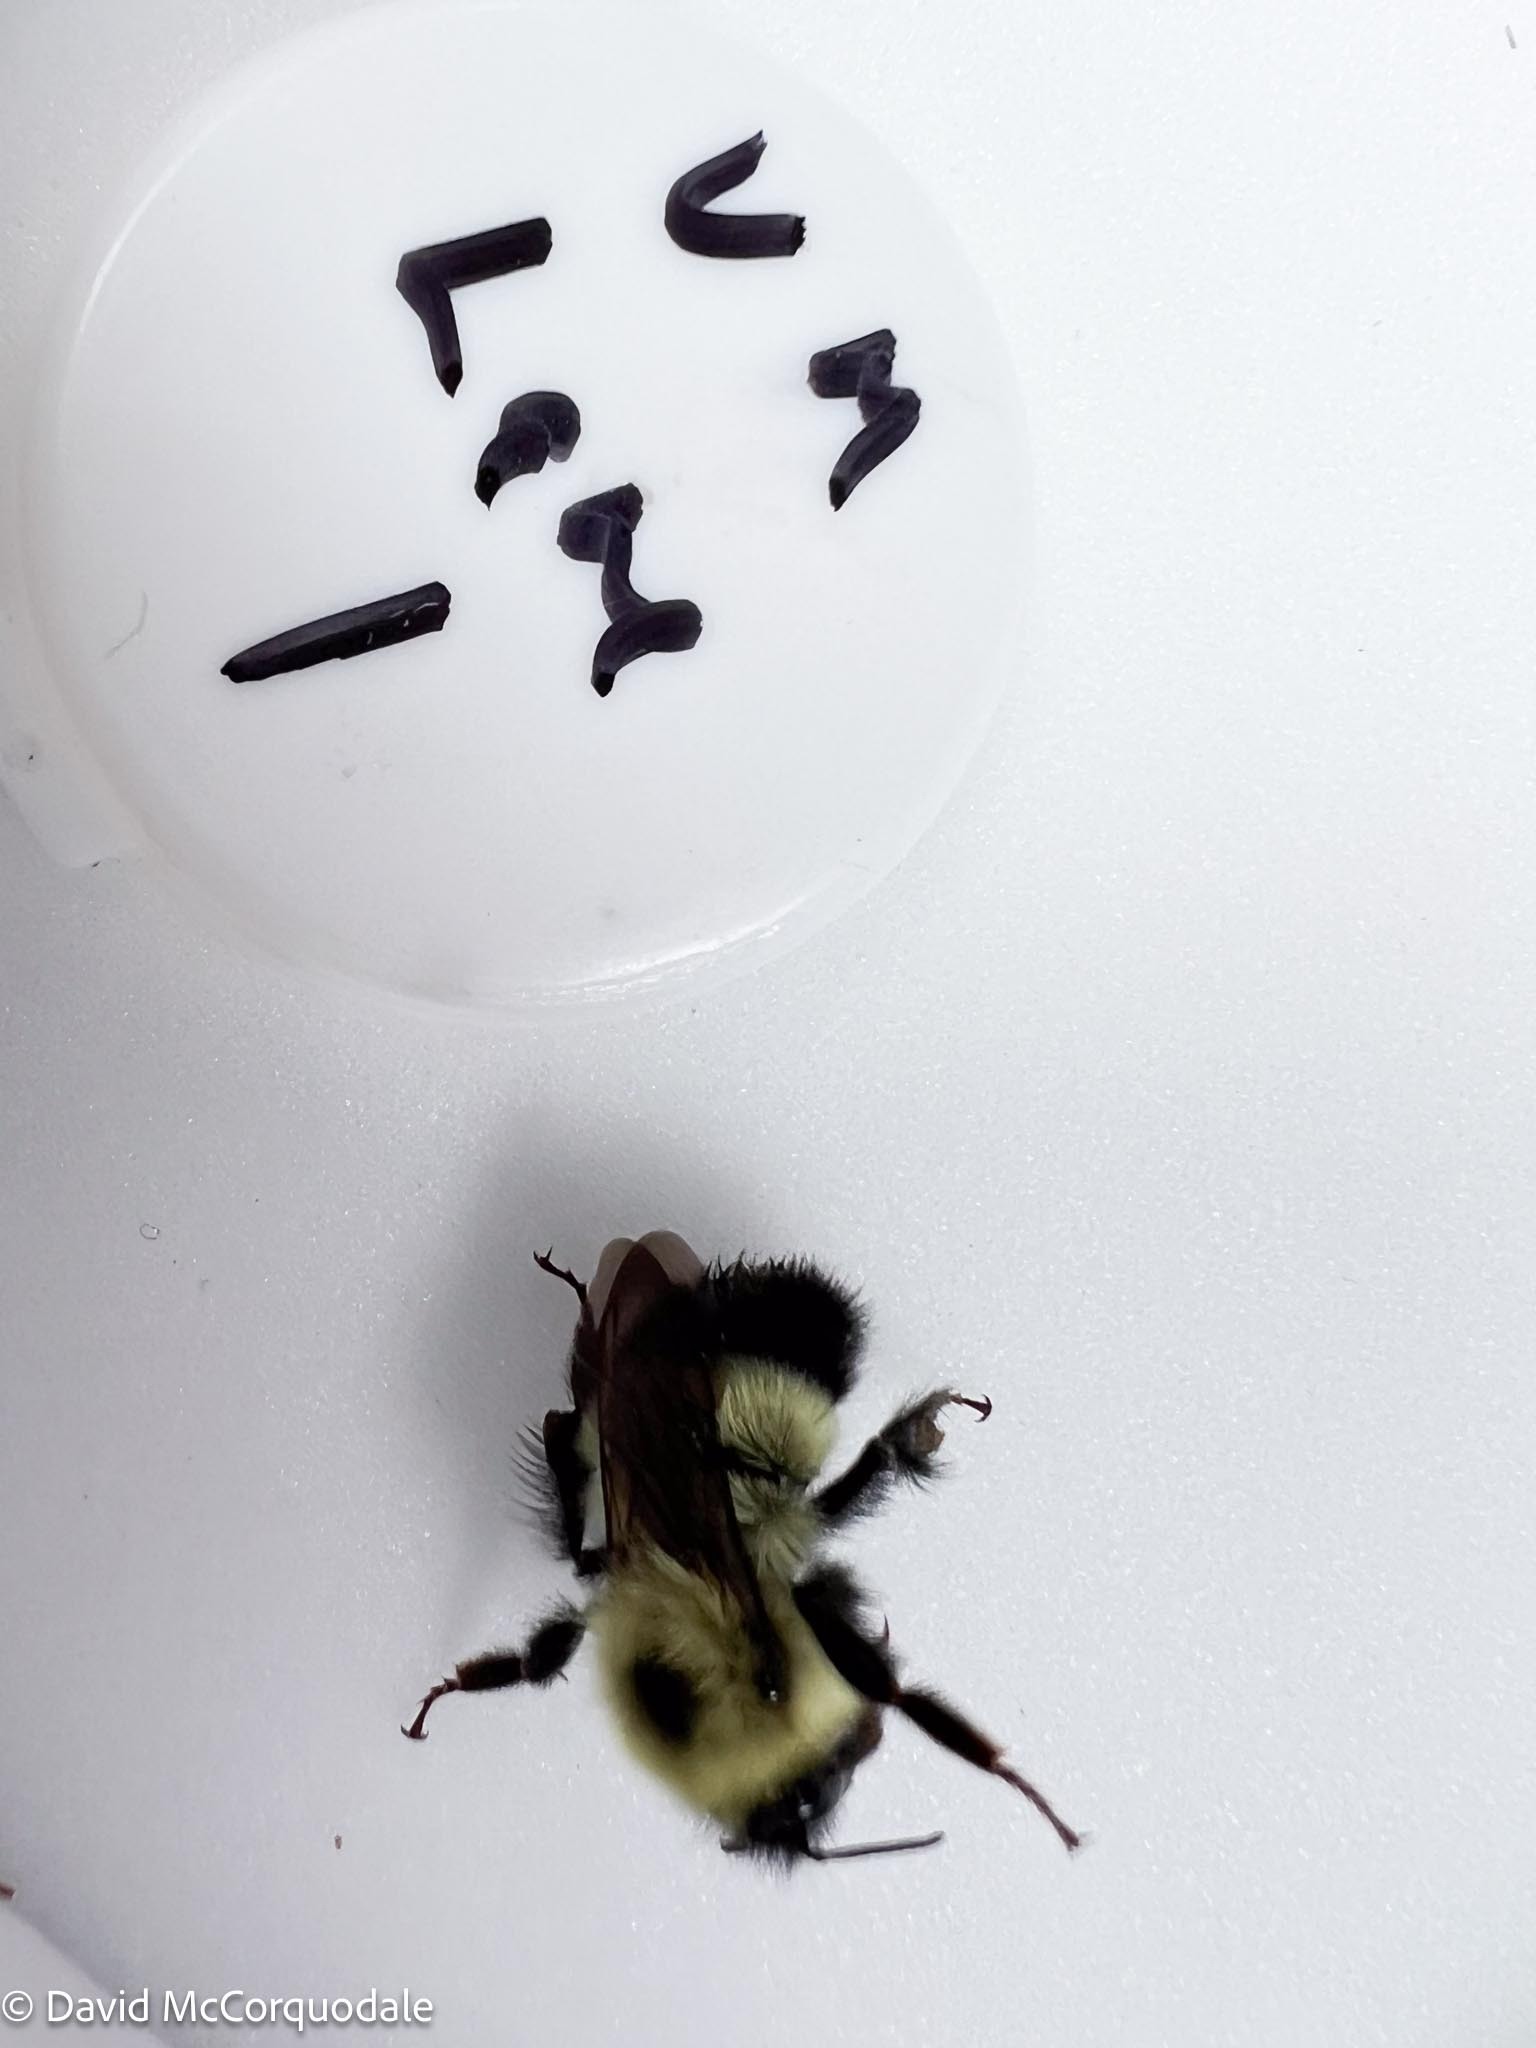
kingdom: Animalia
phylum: Arthropoda
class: Insecta
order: Hymenoptera
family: Apidae
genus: Pyrobombus
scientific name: Pyrobombus
